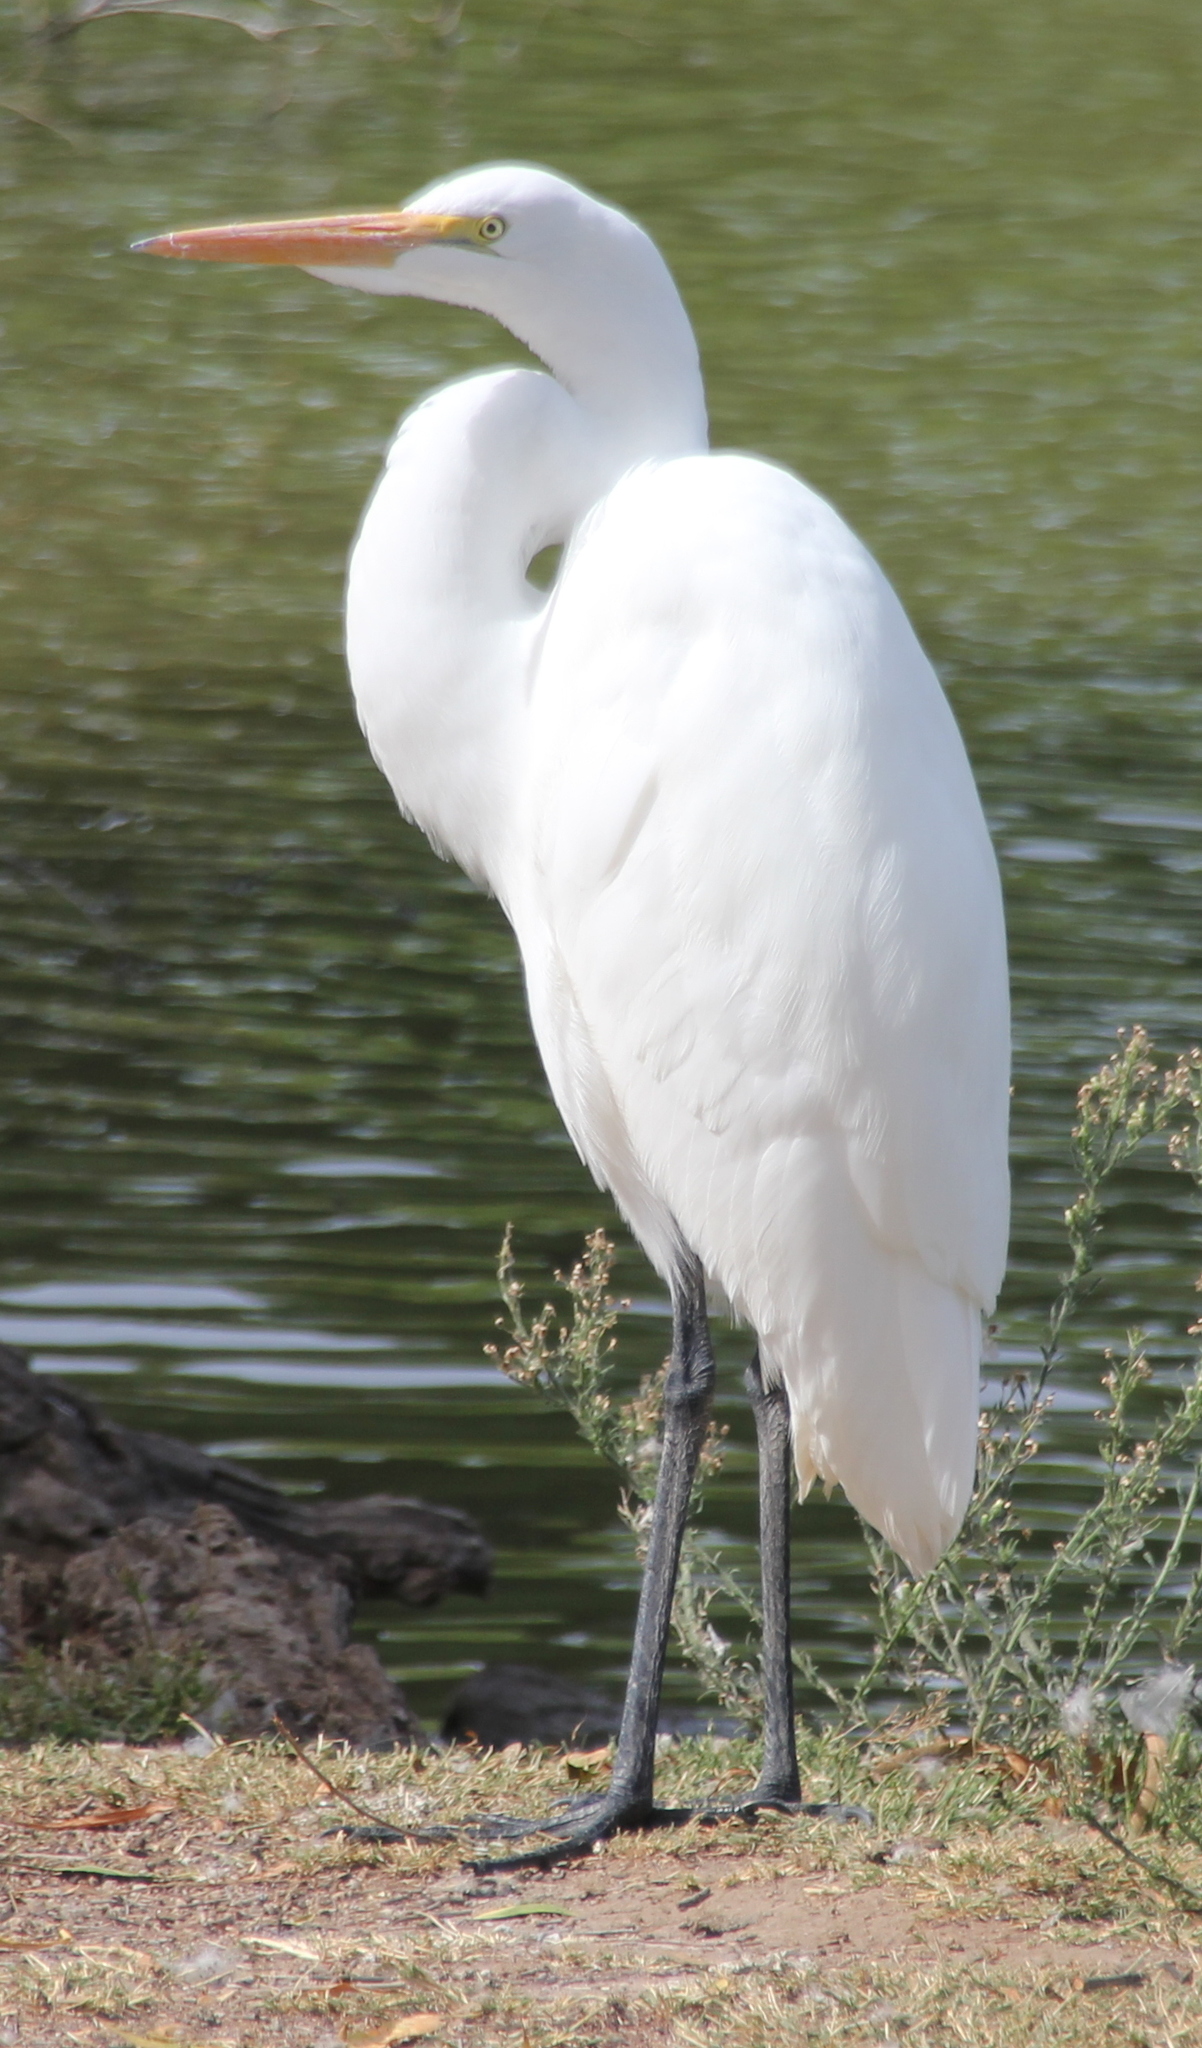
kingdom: Animalia
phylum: Chordata
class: Aves
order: Pelecaniformes
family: Ardeidae
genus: Ardea
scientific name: Ardea alba
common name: Great egret
